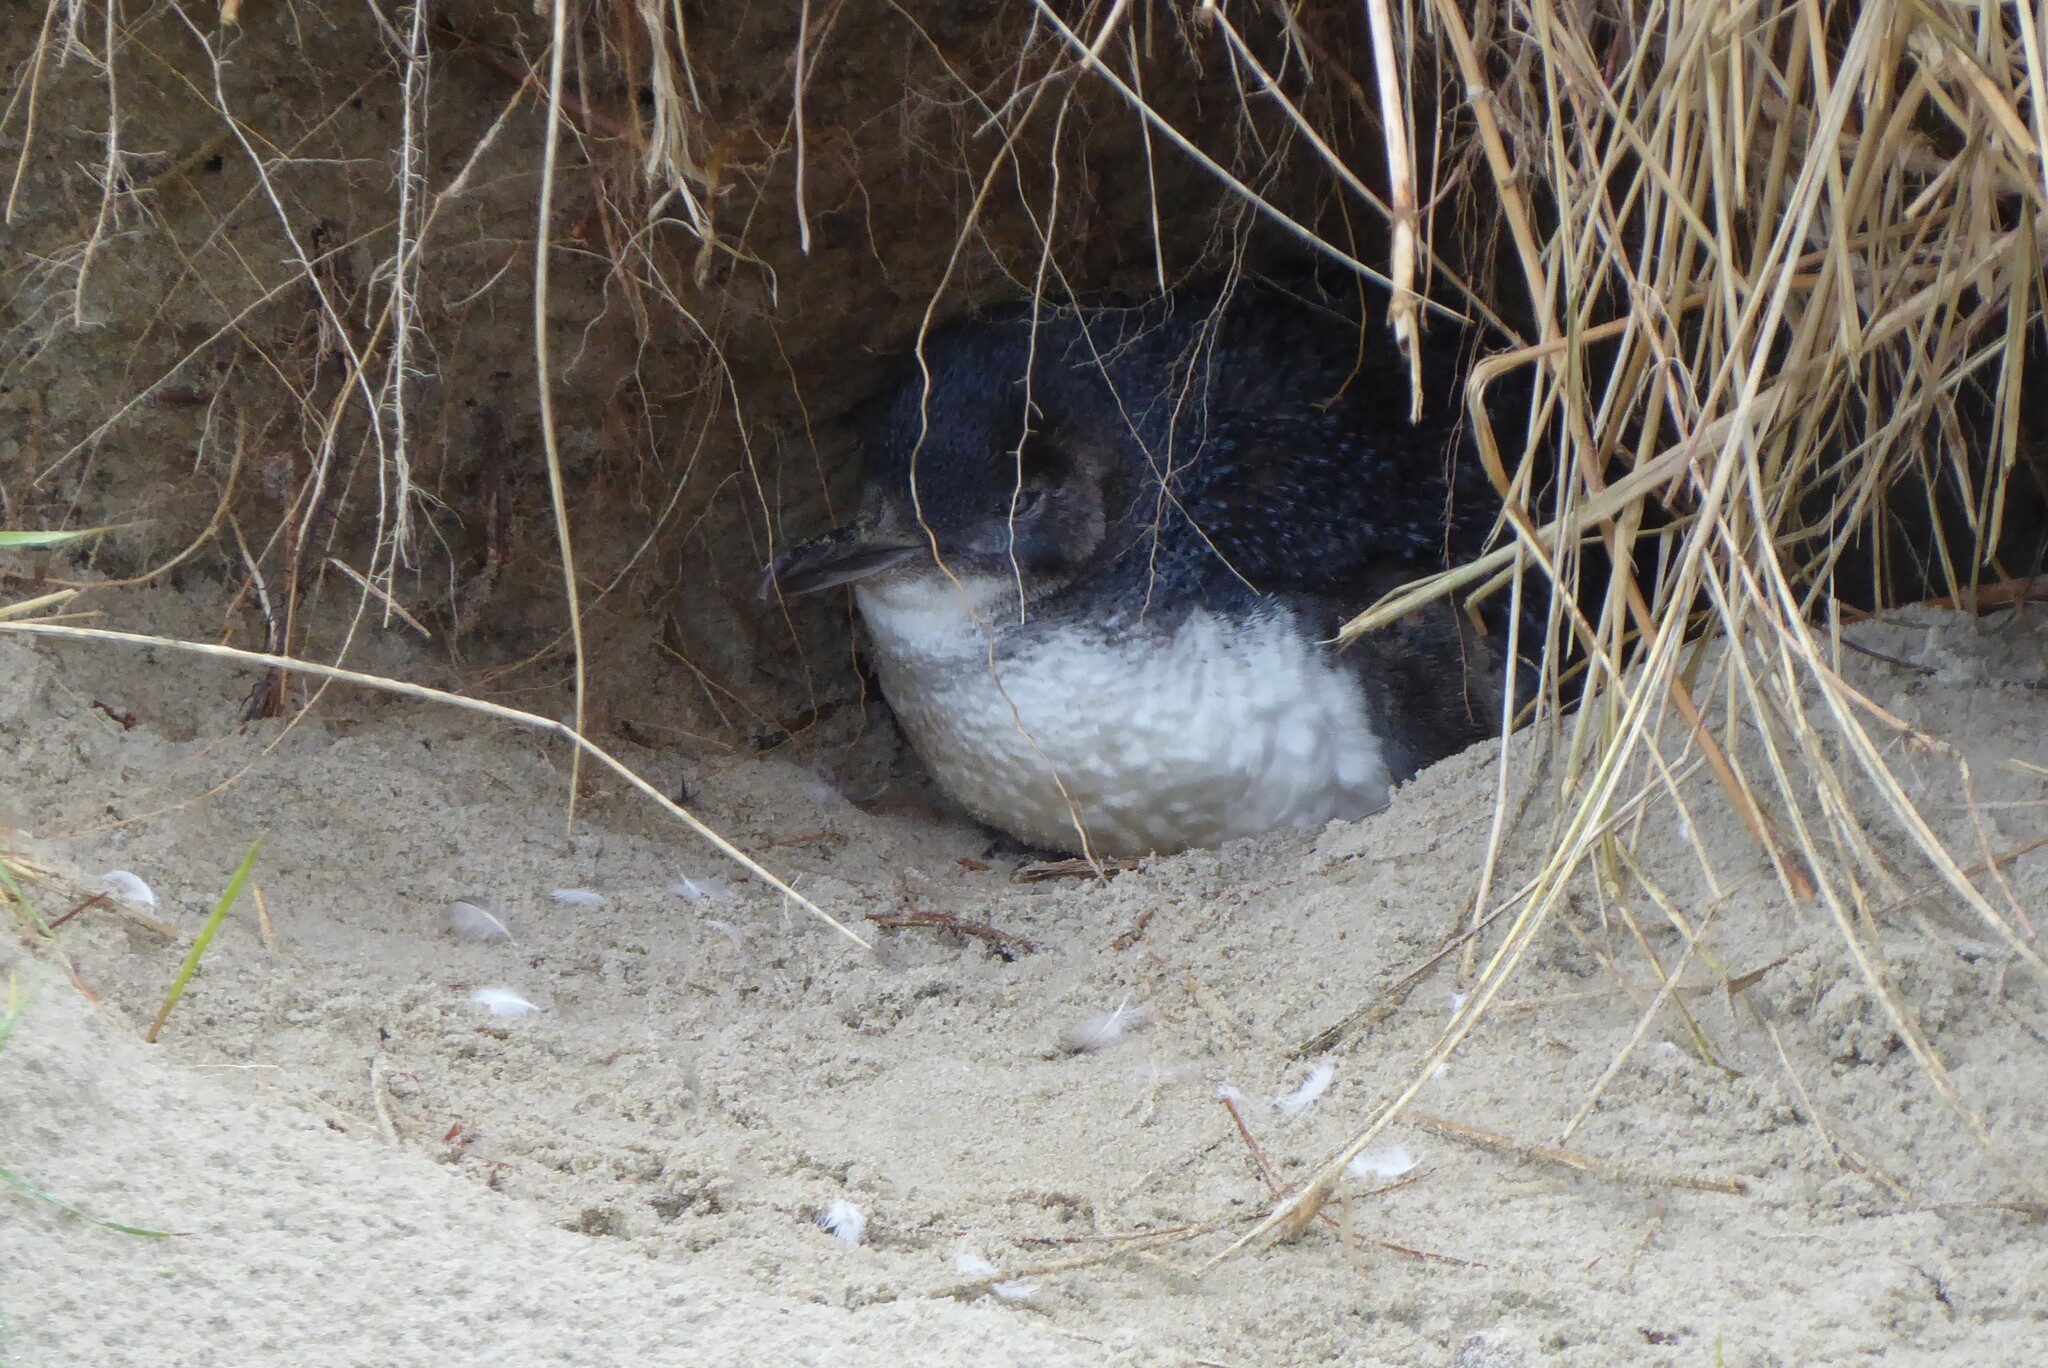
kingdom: Animalia
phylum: Chordata
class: Aves
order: Sphenisciformes
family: Spheniscidae
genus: Eudyptula
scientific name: Eudyptula minor
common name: Little penguin
